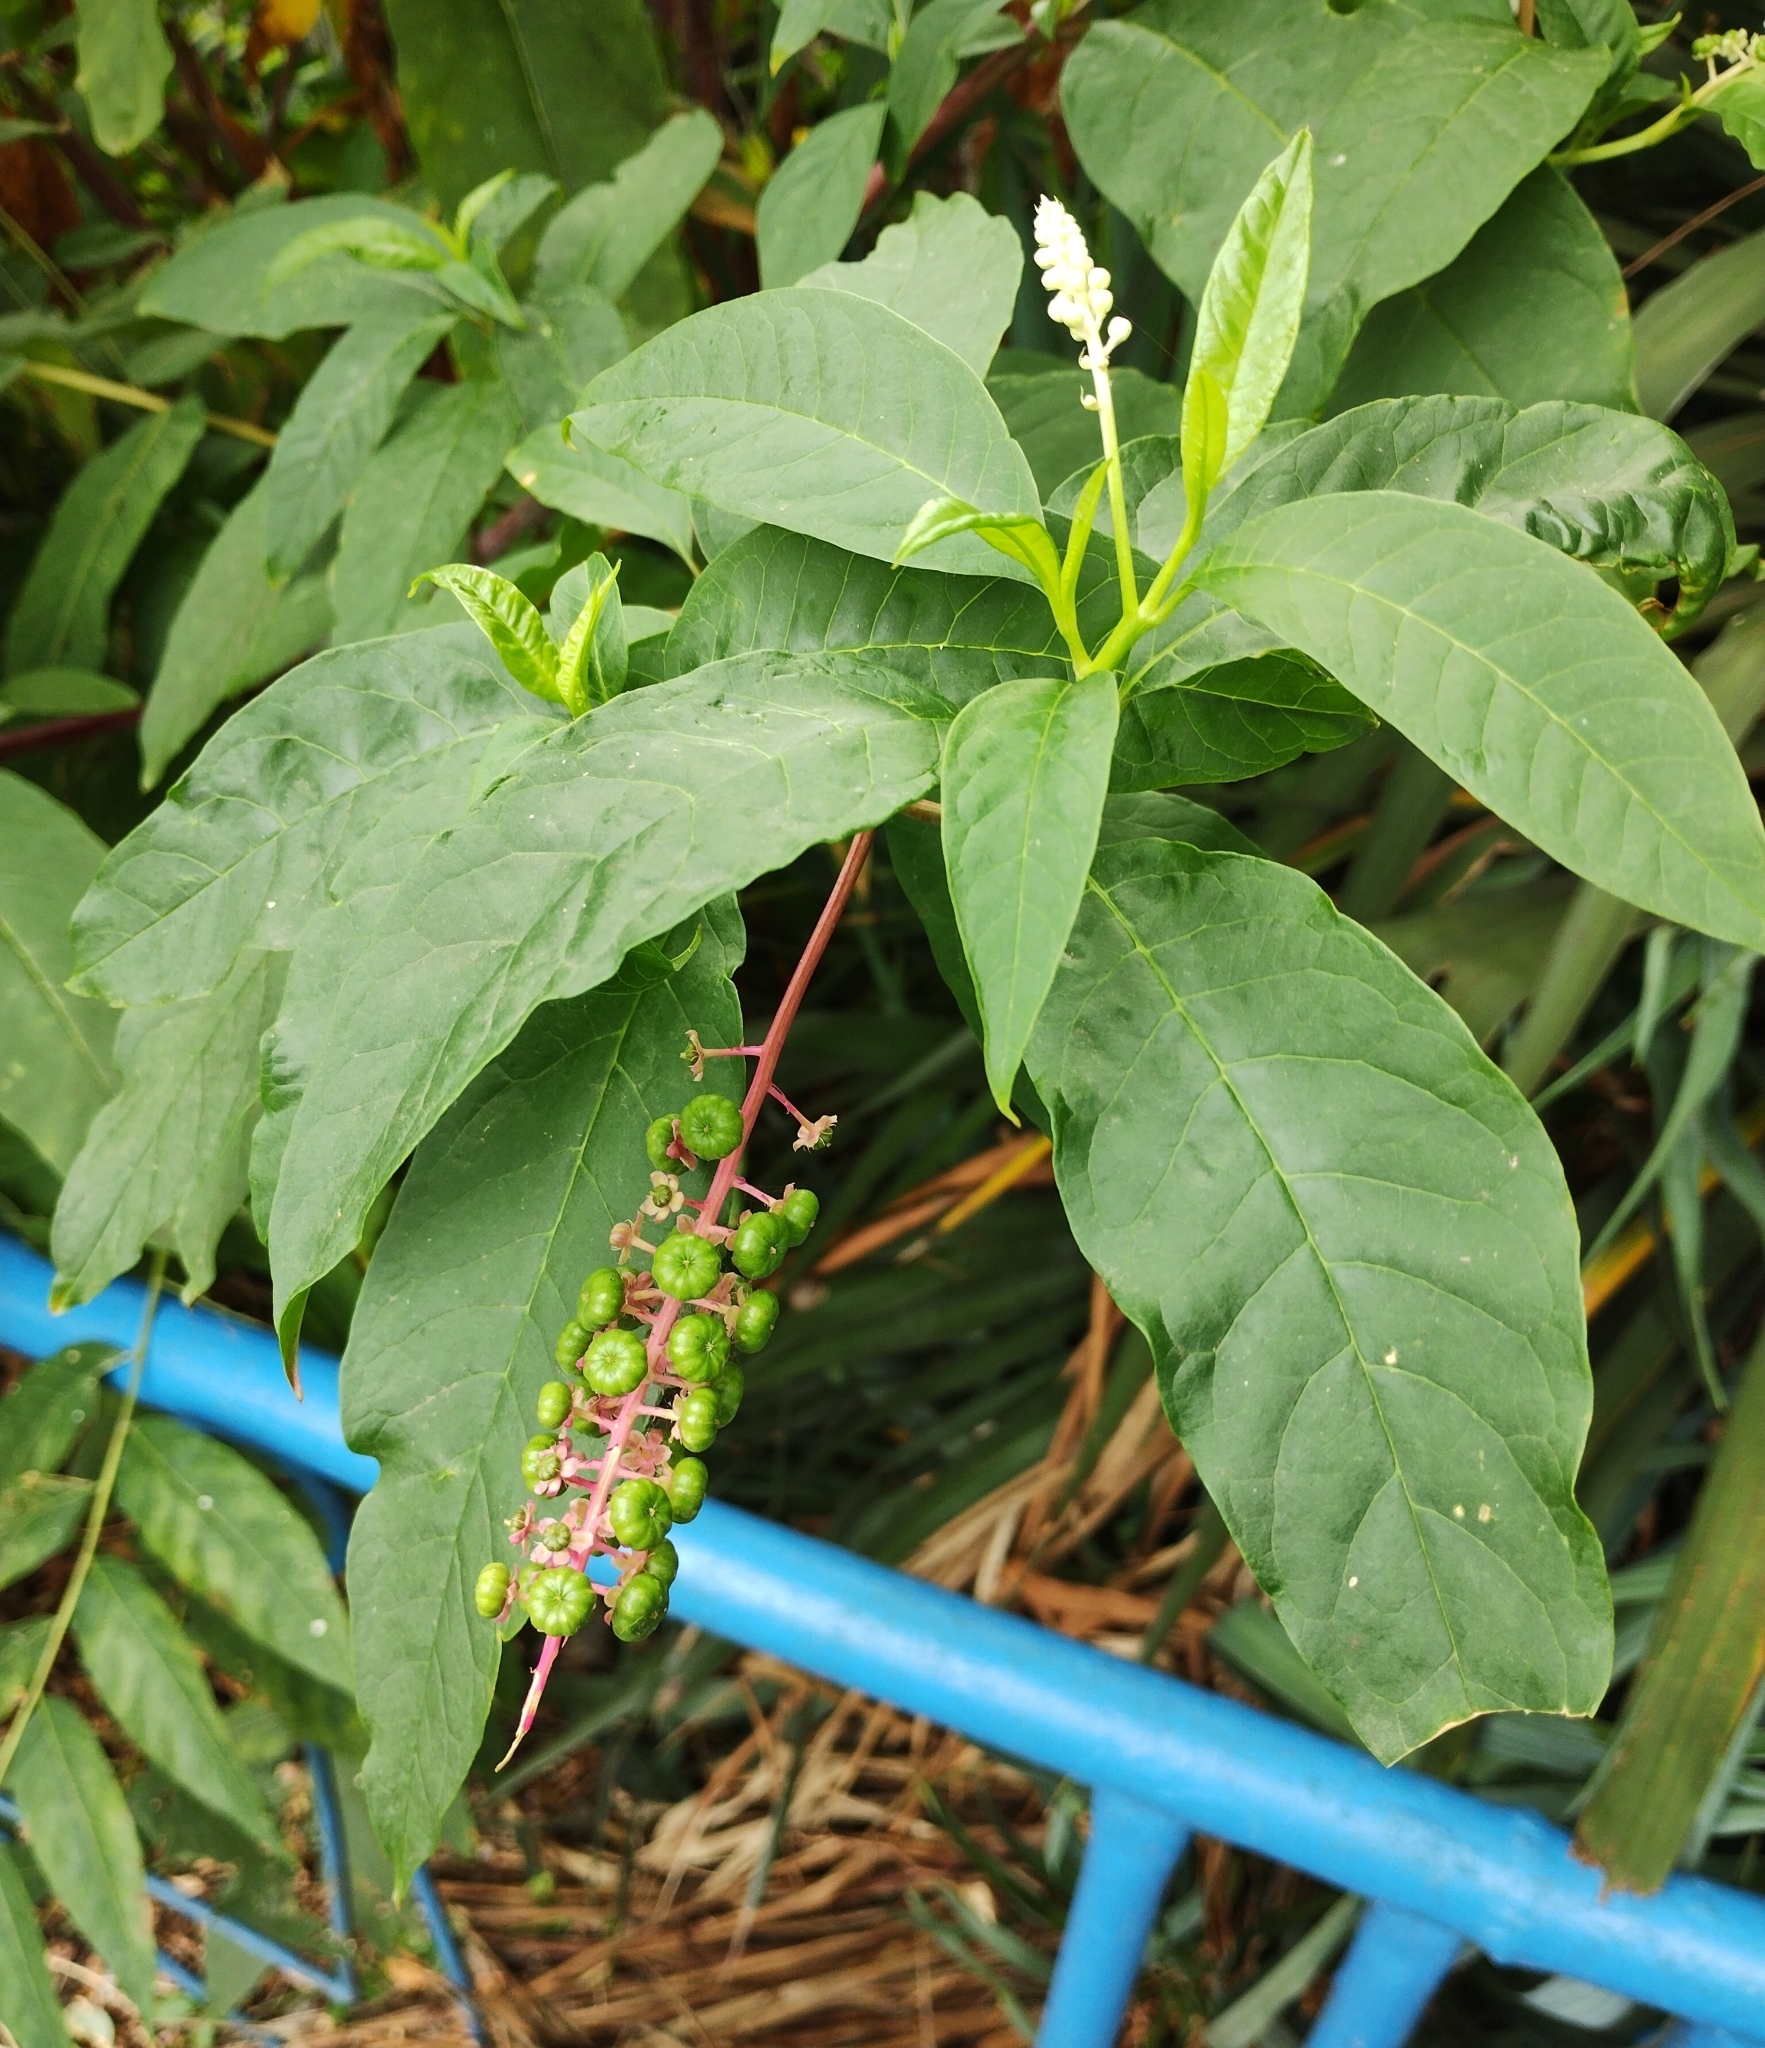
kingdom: Plantae
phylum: Tracheophyta
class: Magnoliopsida
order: Caryophyllales
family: Phytolaccaceae
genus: Phytolacca
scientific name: Phytolacca americana
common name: American pokeweed
